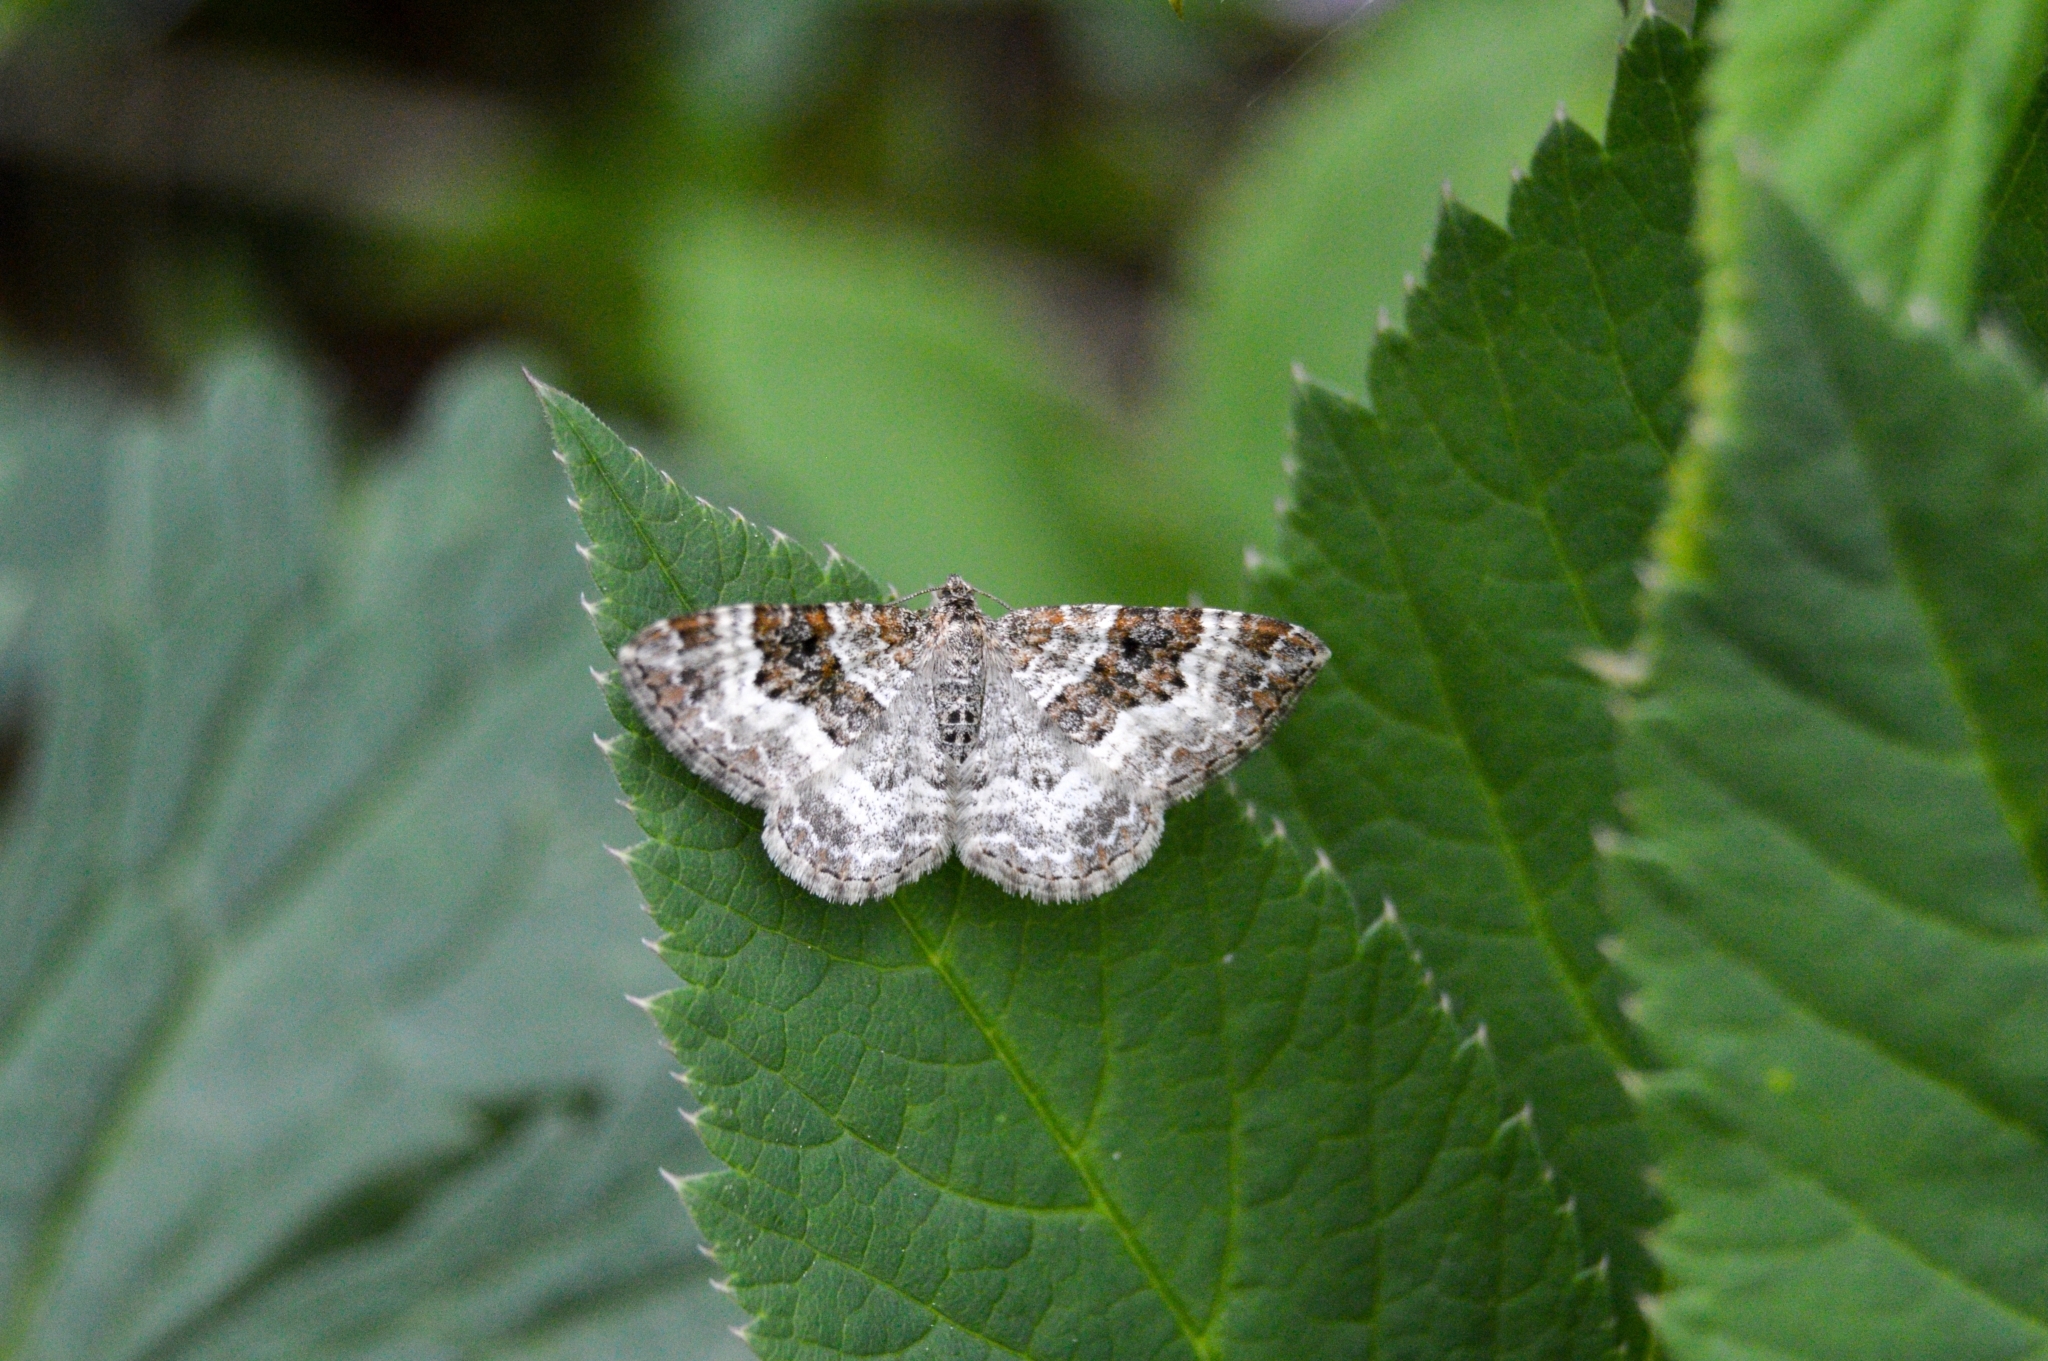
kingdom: Animalia
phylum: Arthropoda
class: Insecta
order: Lepidoptera
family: Geometridae
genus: Epirrhoe
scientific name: Epirrhoe alternata
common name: Common carpet
